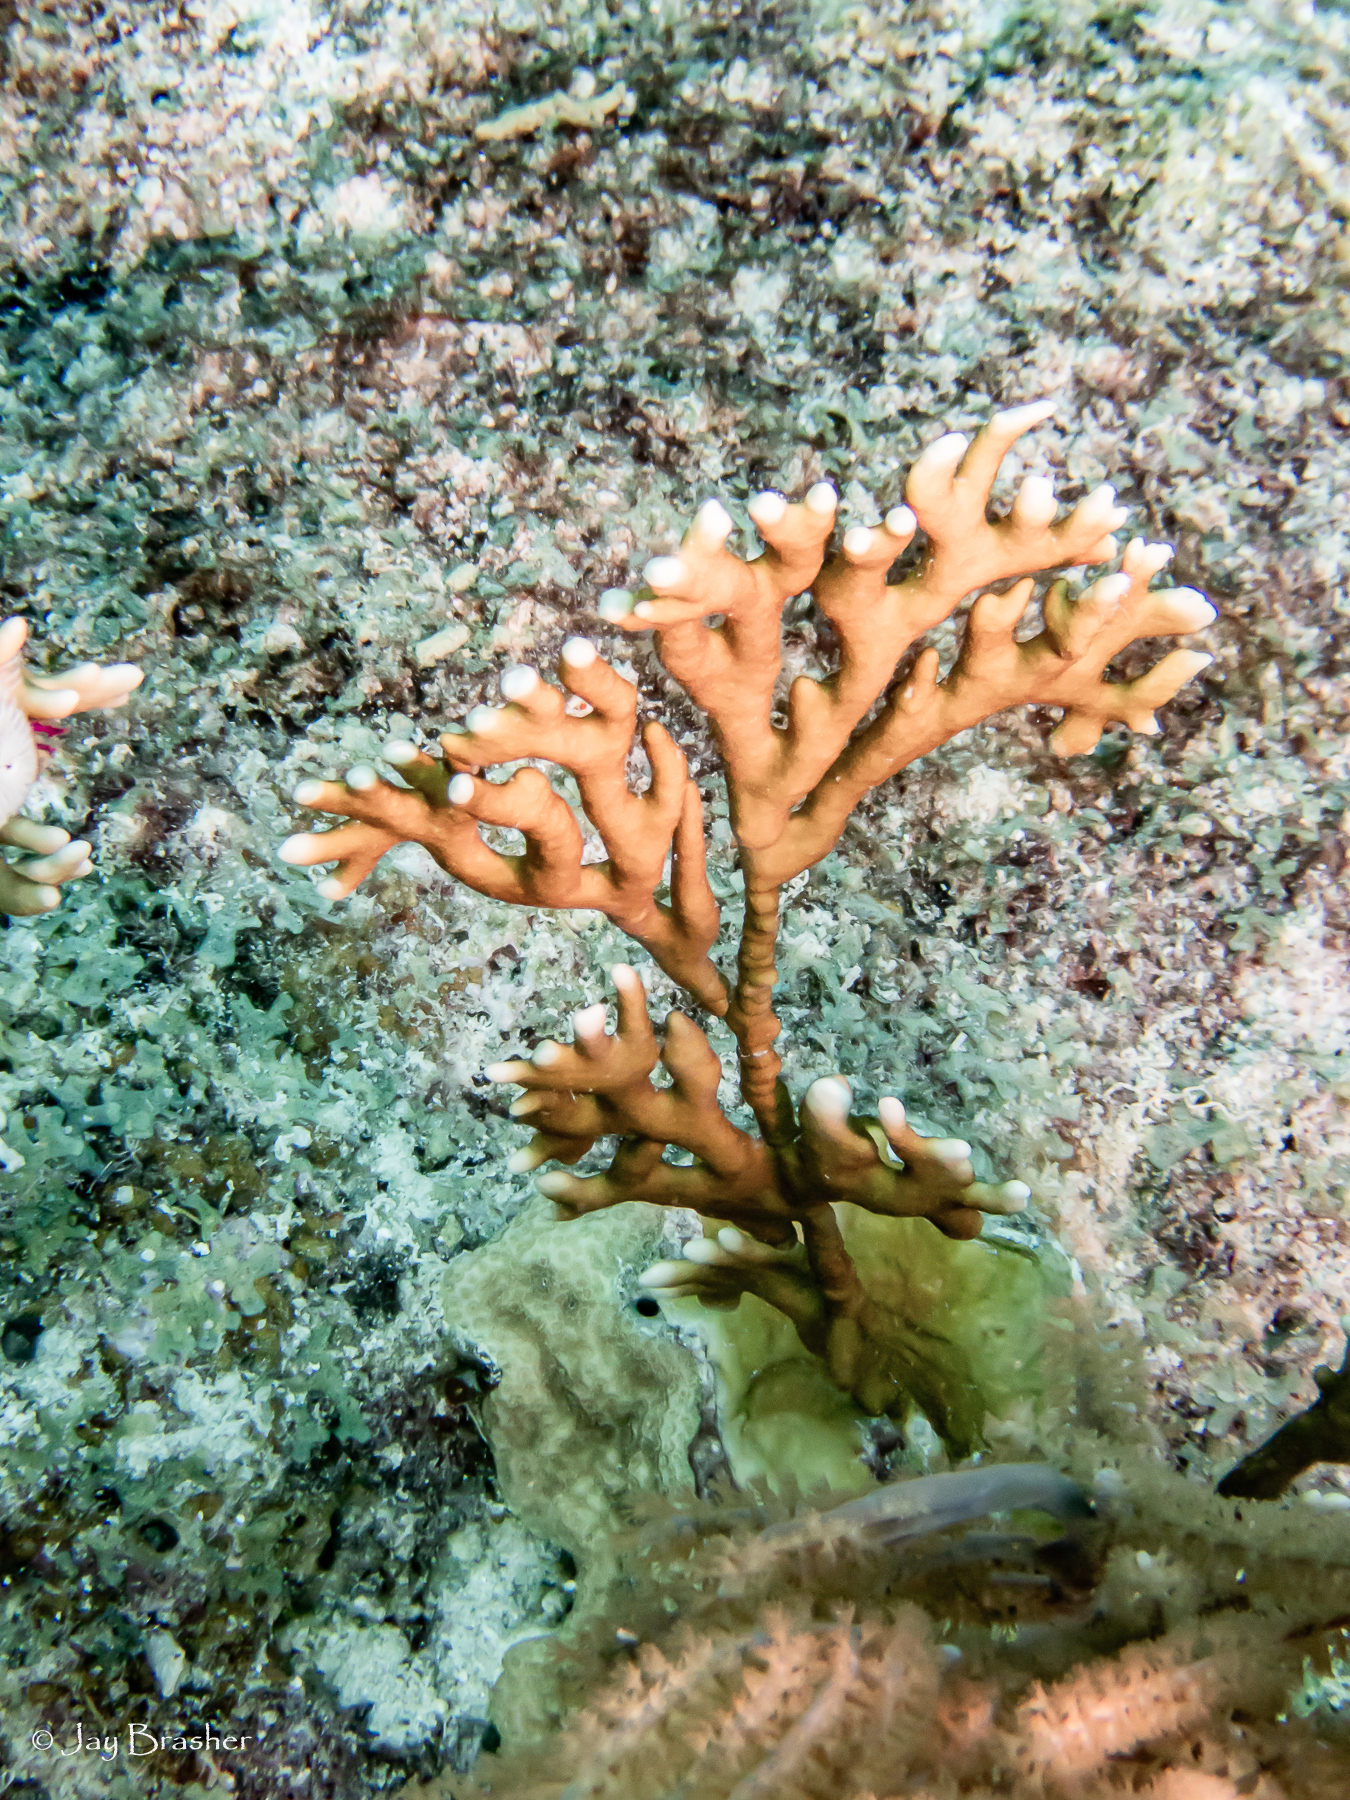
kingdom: Animalia
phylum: Cnidaria
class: Hydrozoa
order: Anthoathecata
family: Milleporidae
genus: Millepora
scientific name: Millepora alcicornis
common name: Branching fire coral
